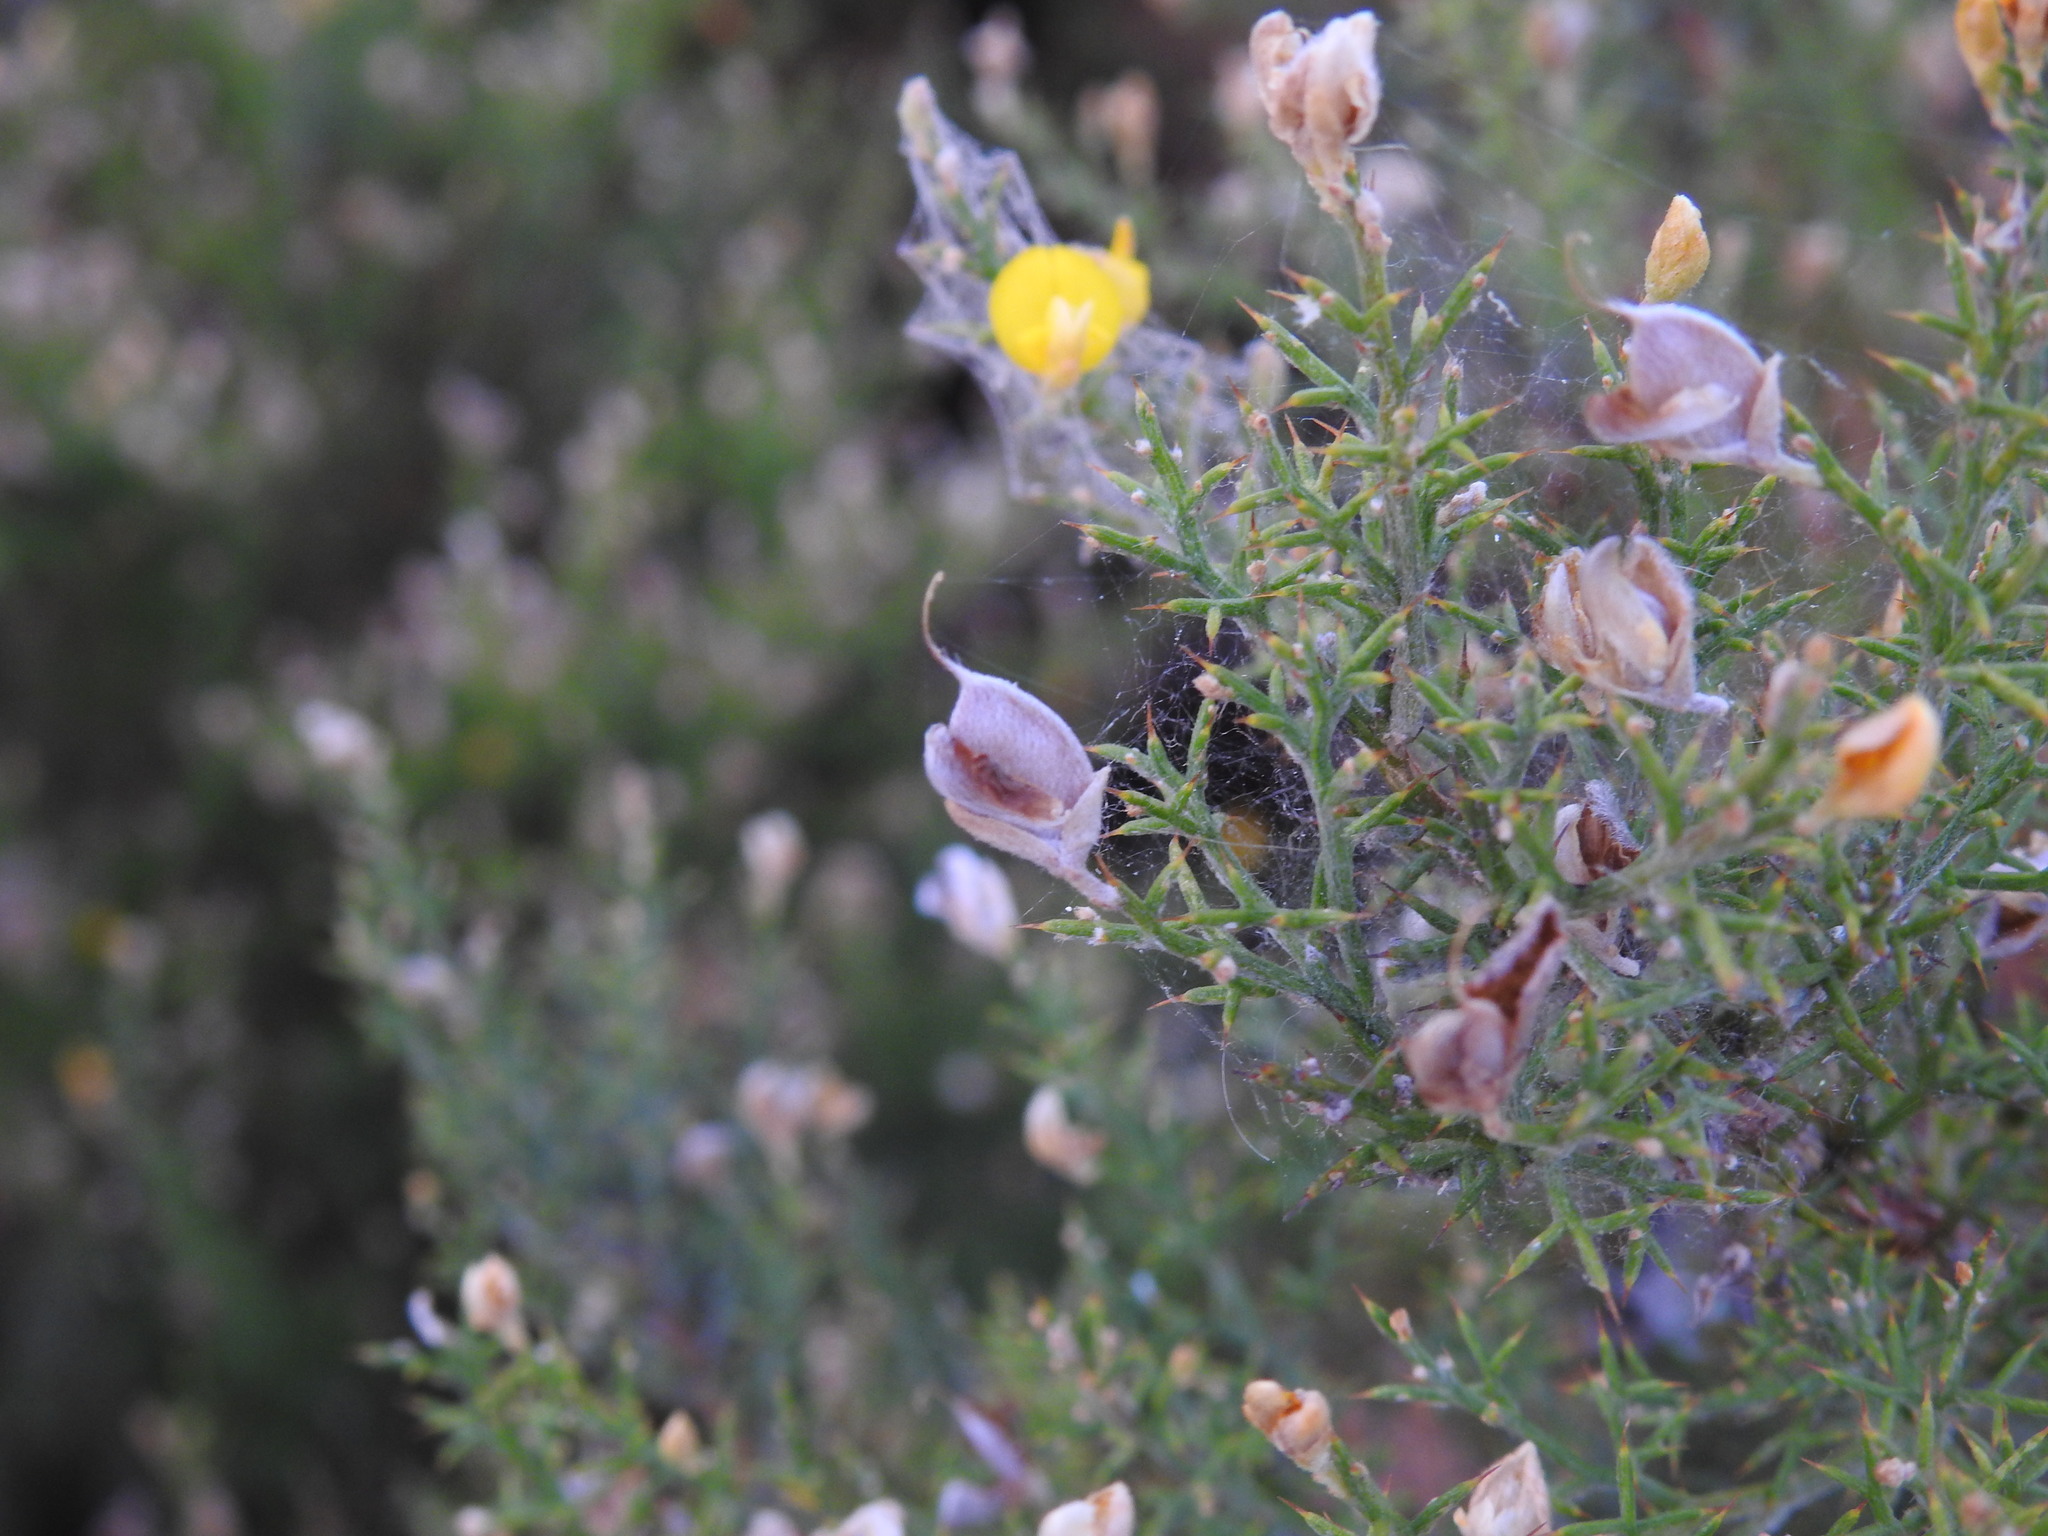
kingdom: Plantae
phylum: Tracheophyta
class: Magnoliopsida
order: Fabales
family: Fabaceae
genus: Stauracanthus
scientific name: Stauracanthus boivinii
